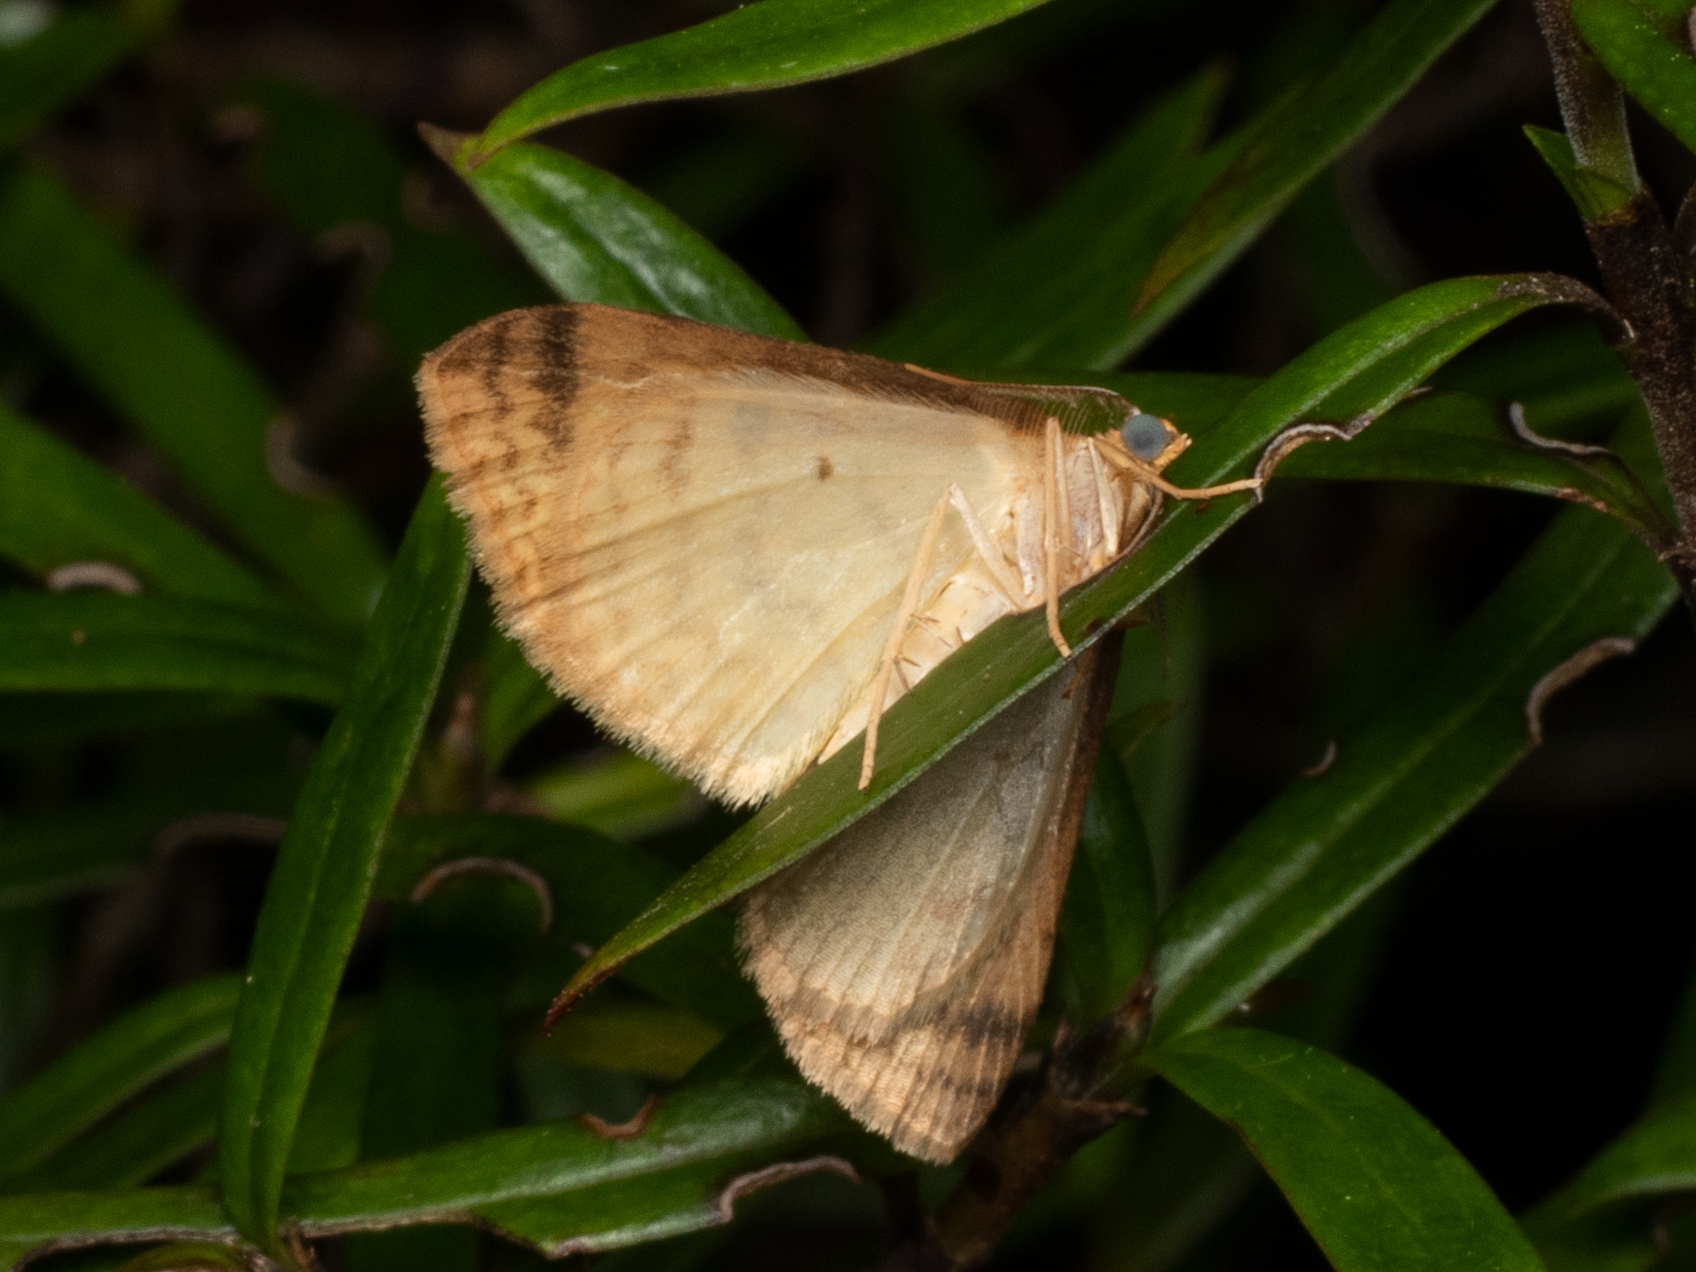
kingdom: Animalia
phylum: Arthropoda
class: Insecta
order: Lepidoptera
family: Geometridae
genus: Epiphryne
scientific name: Epiphryne undosata
